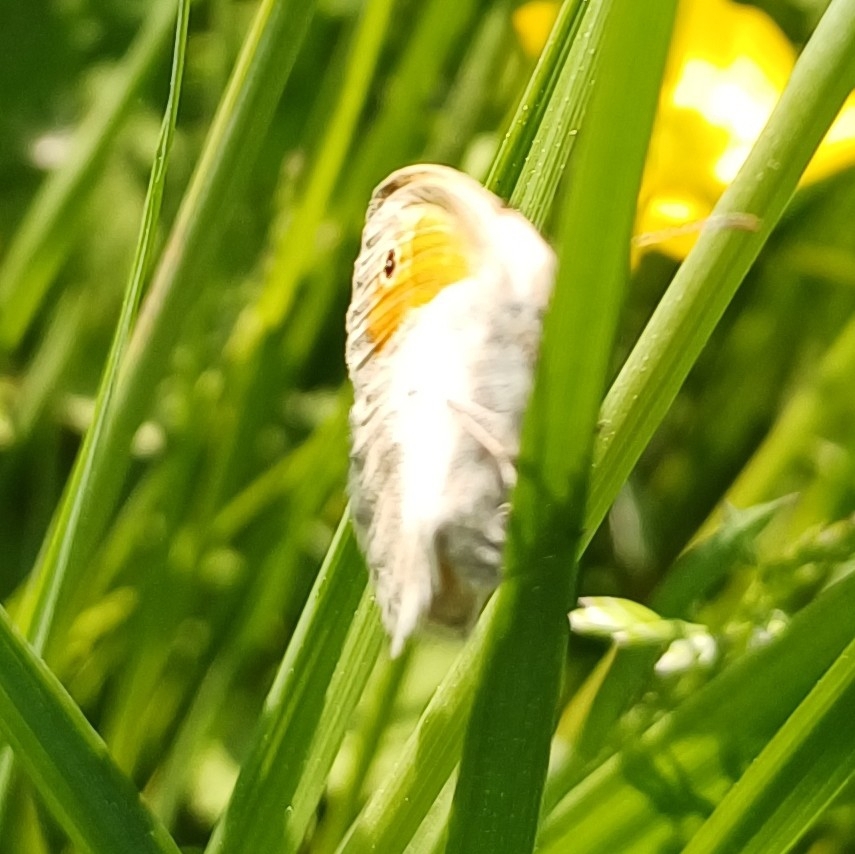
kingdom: Animalia
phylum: Arthropoda
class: Insecta
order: Lepidoptera
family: Nymphalidae
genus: Coenonympha
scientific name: Coenonympha pamphilus
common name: Small heath
